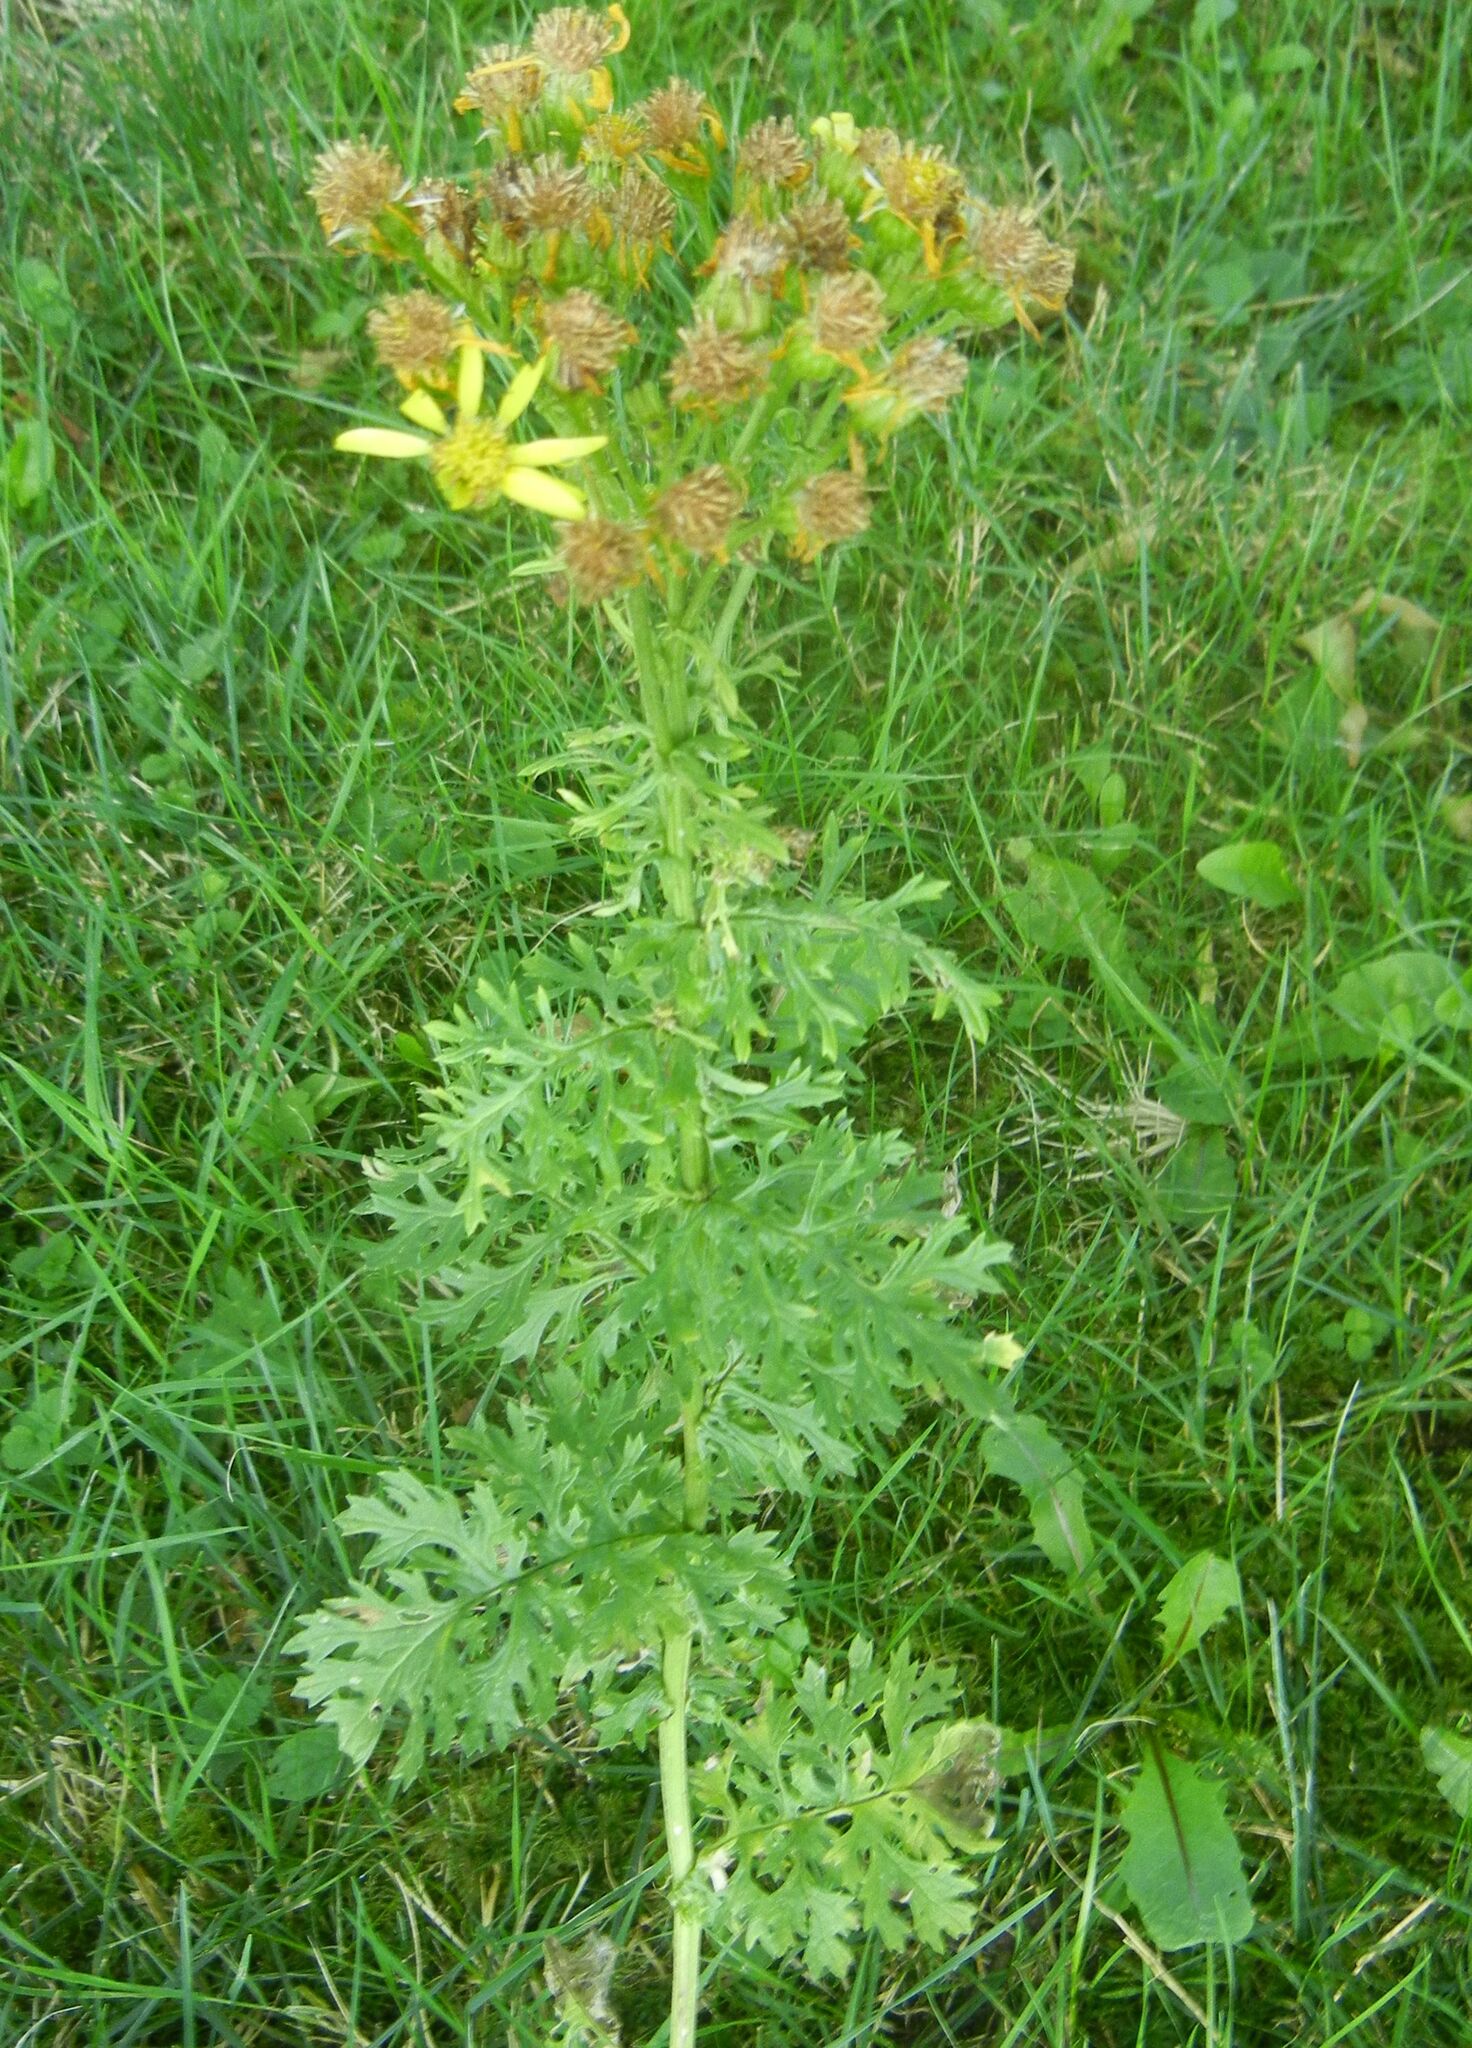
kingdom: Plantae
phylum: Tracheophyta
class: Magnoliopsida
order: Asterales
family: Asteraceae
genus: Jacobaea
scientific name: Jacobaea vulgaris
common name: Stinking willie
